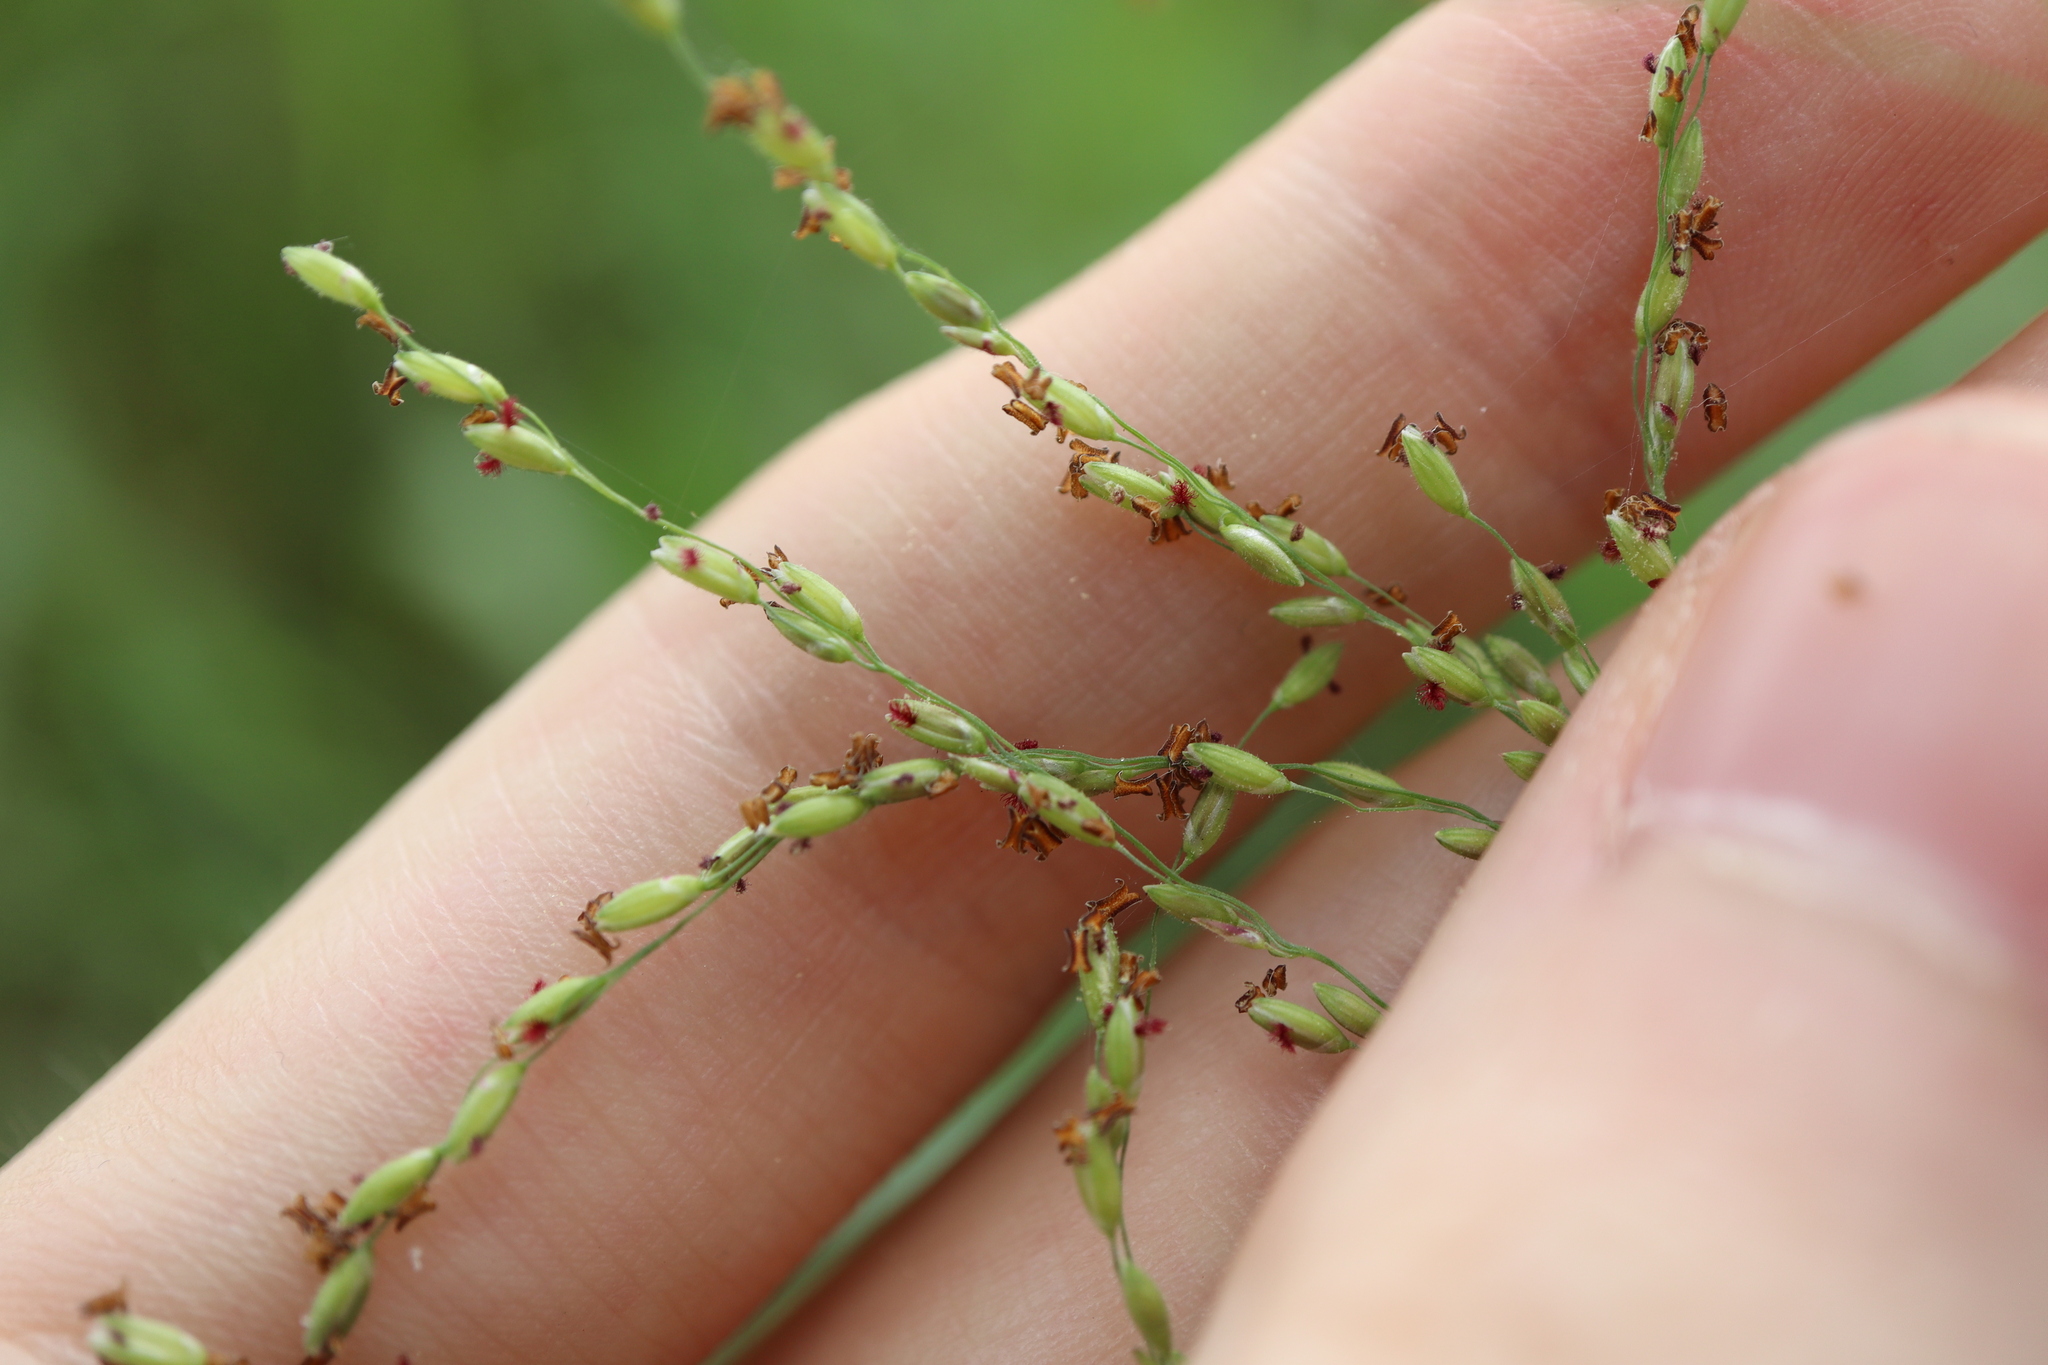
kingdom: Plantae
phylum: Tracheophyta
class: Liliopsida
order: Poales
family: Poaceae
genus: Megathyrsus
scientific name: Megathyrsus maximus
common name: Guineagrass
